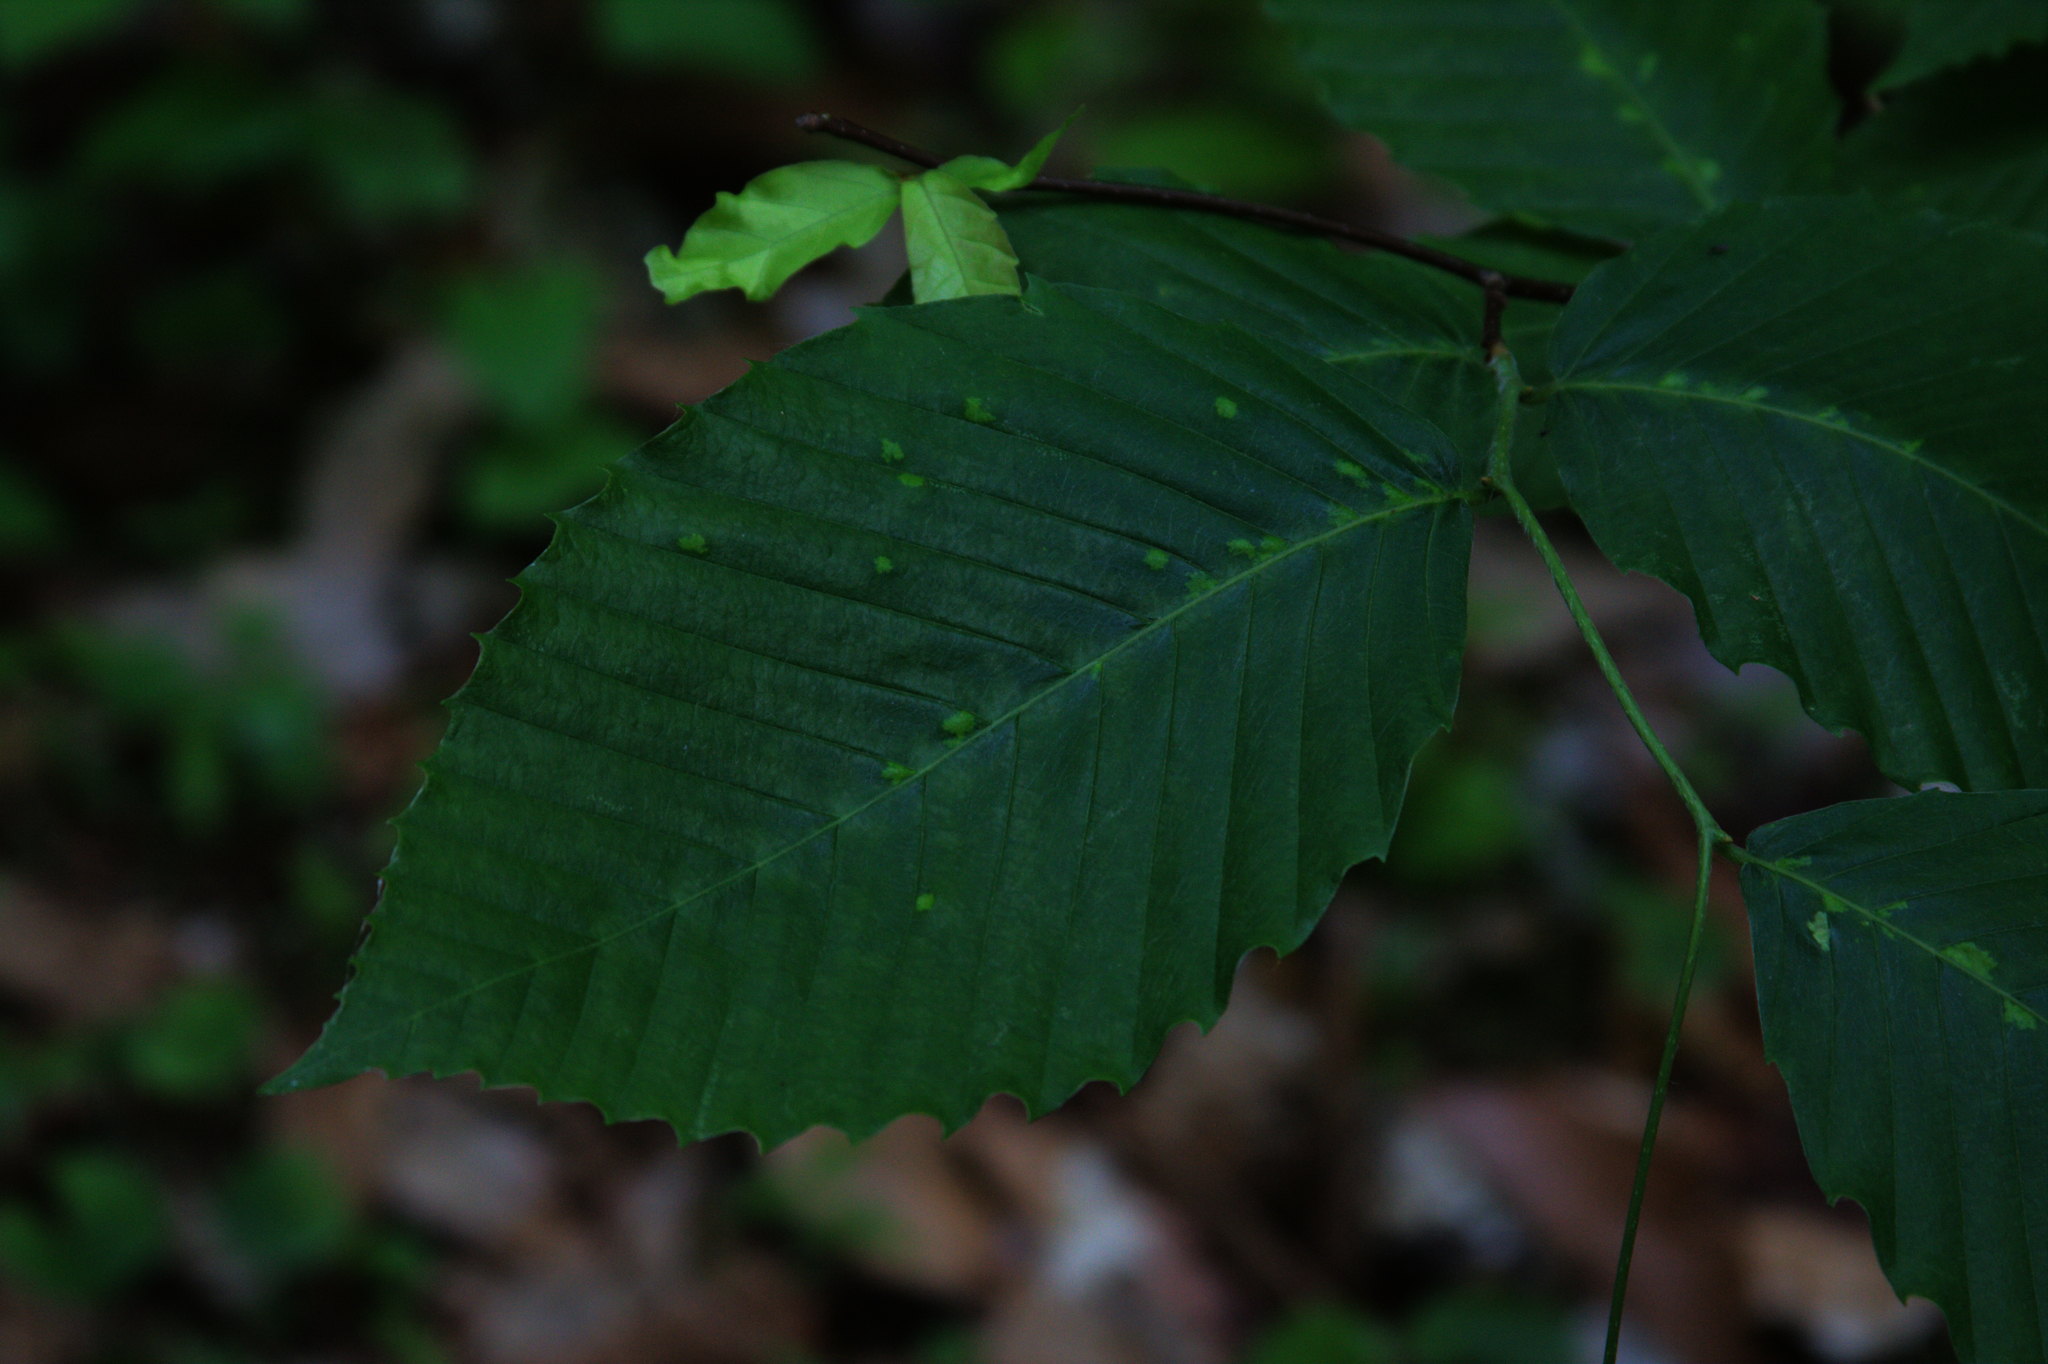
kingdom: Plantae
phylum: Tracheophyta
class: Magnoliopsida
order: Fagales
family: Fagaceae
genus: Fagus
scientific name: Fagus grandifolia
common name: American beech
